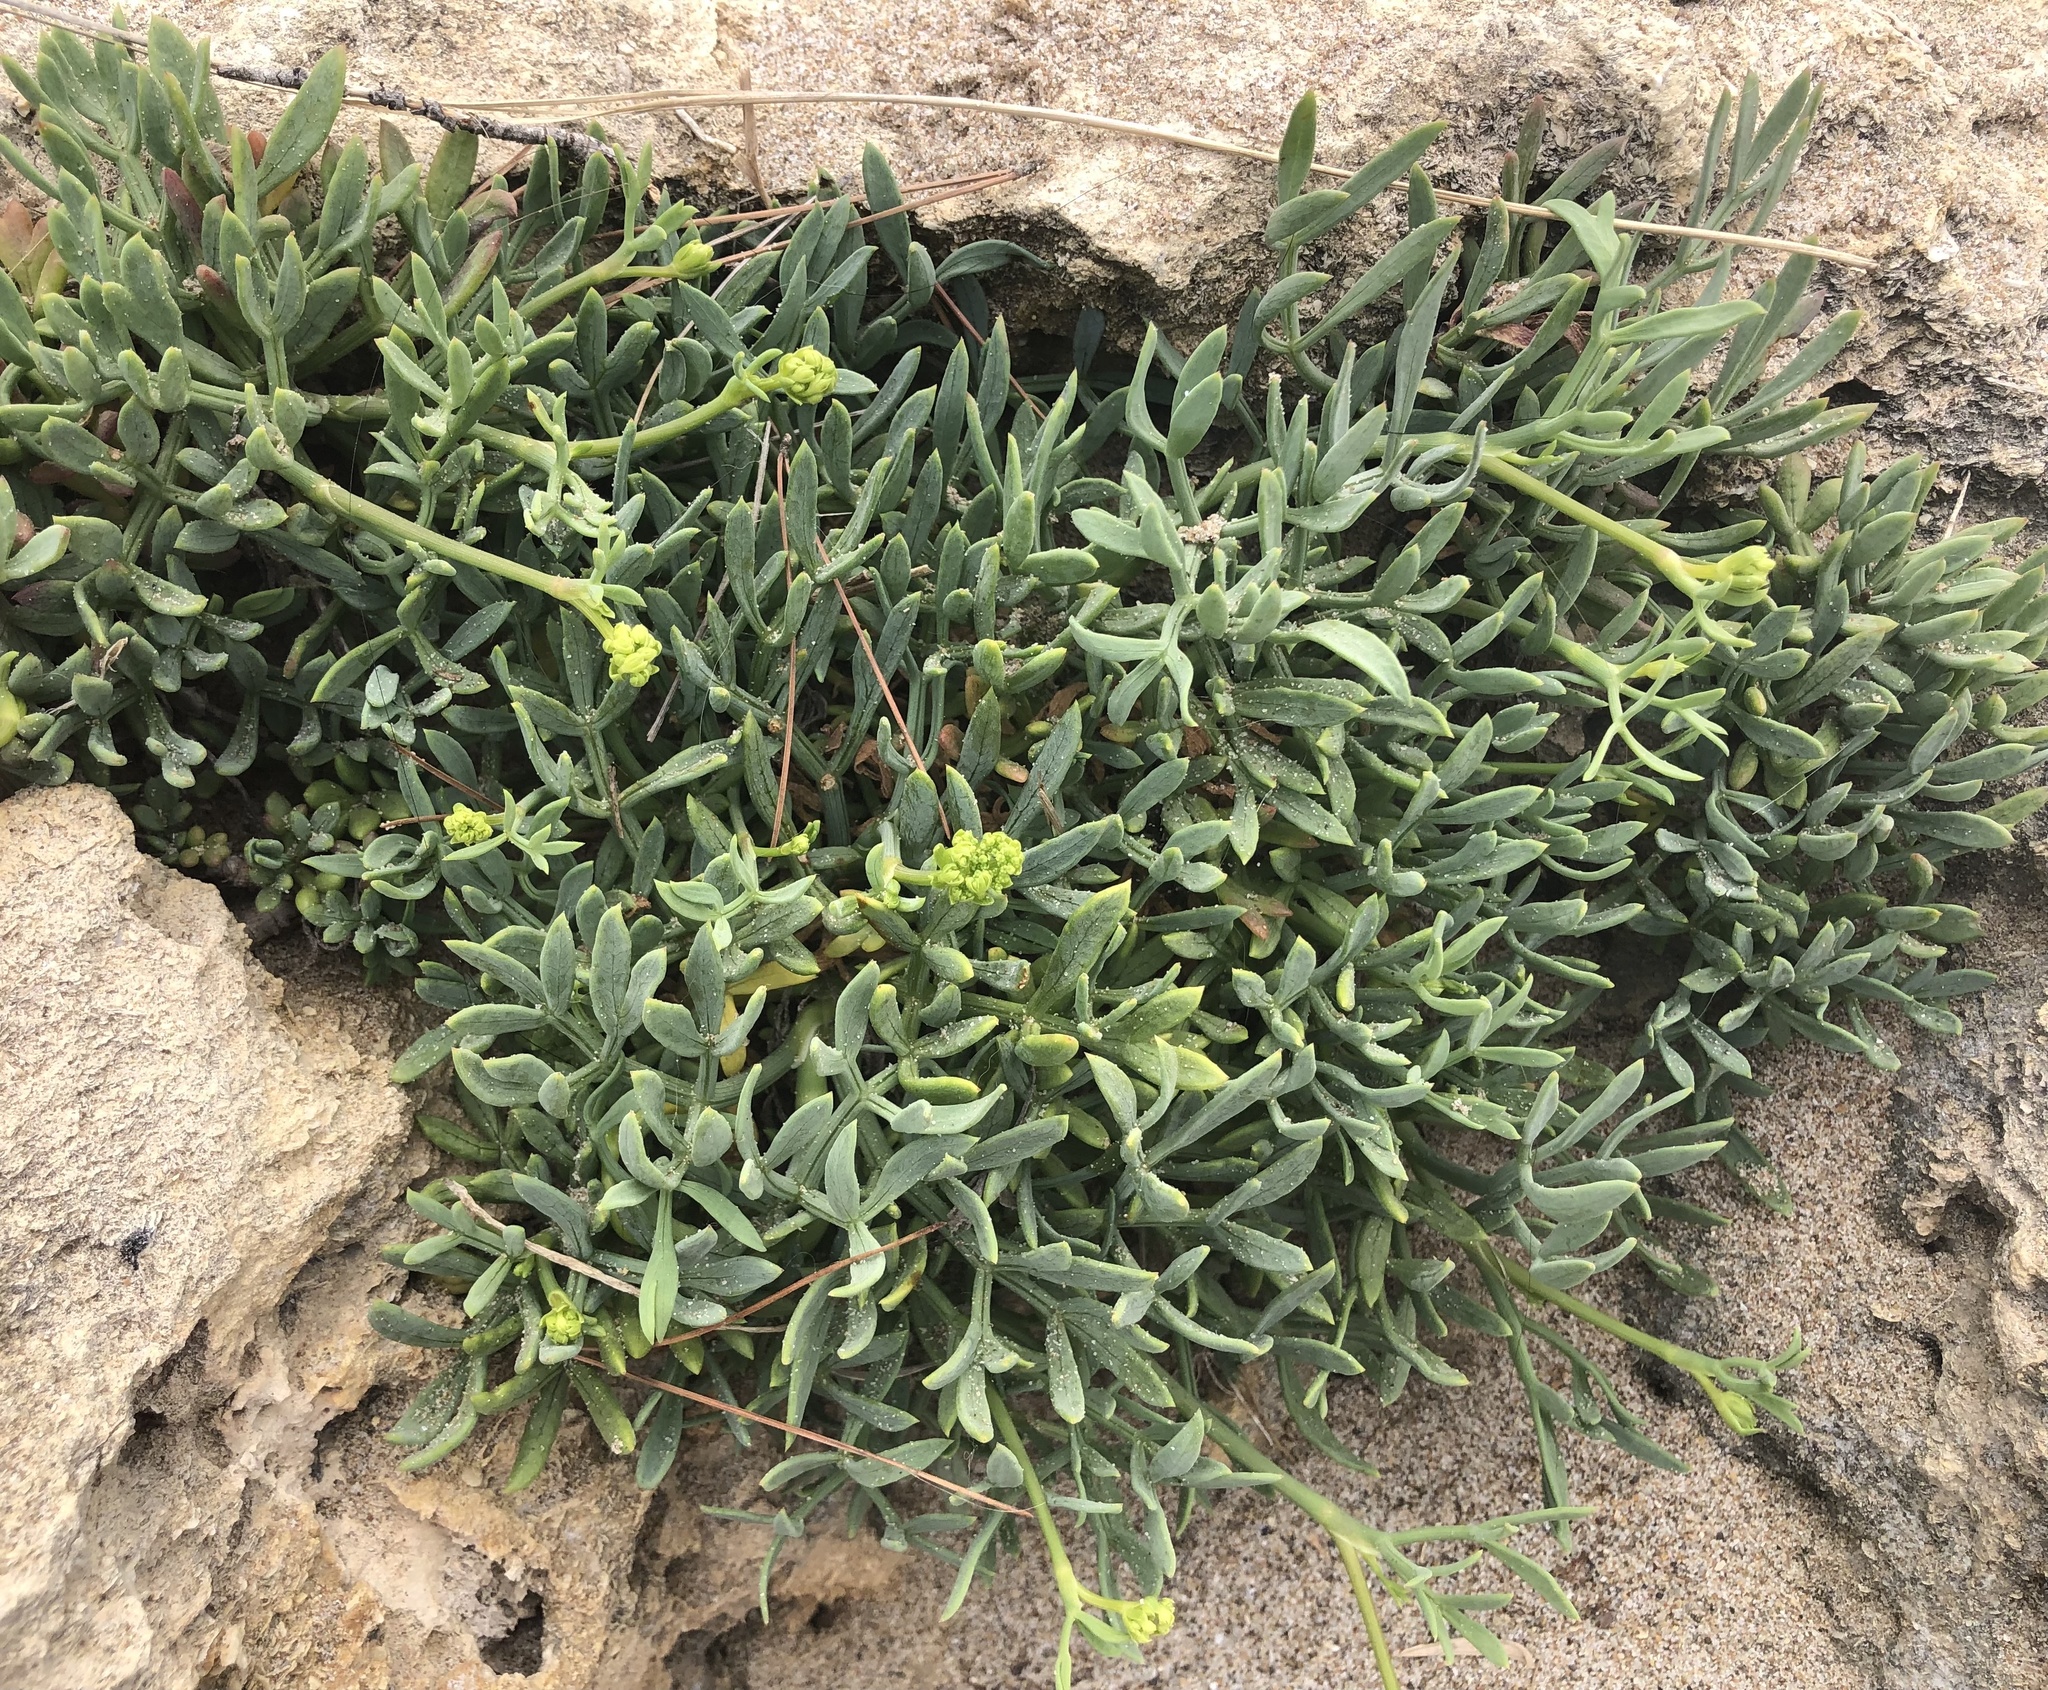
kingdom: Plantae
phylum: Tracheophyta
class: Magnoliopsida
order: Apiales
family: Apiaceae
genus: Crithmum
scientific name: Crithmum maritimum
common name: Rock samphire
